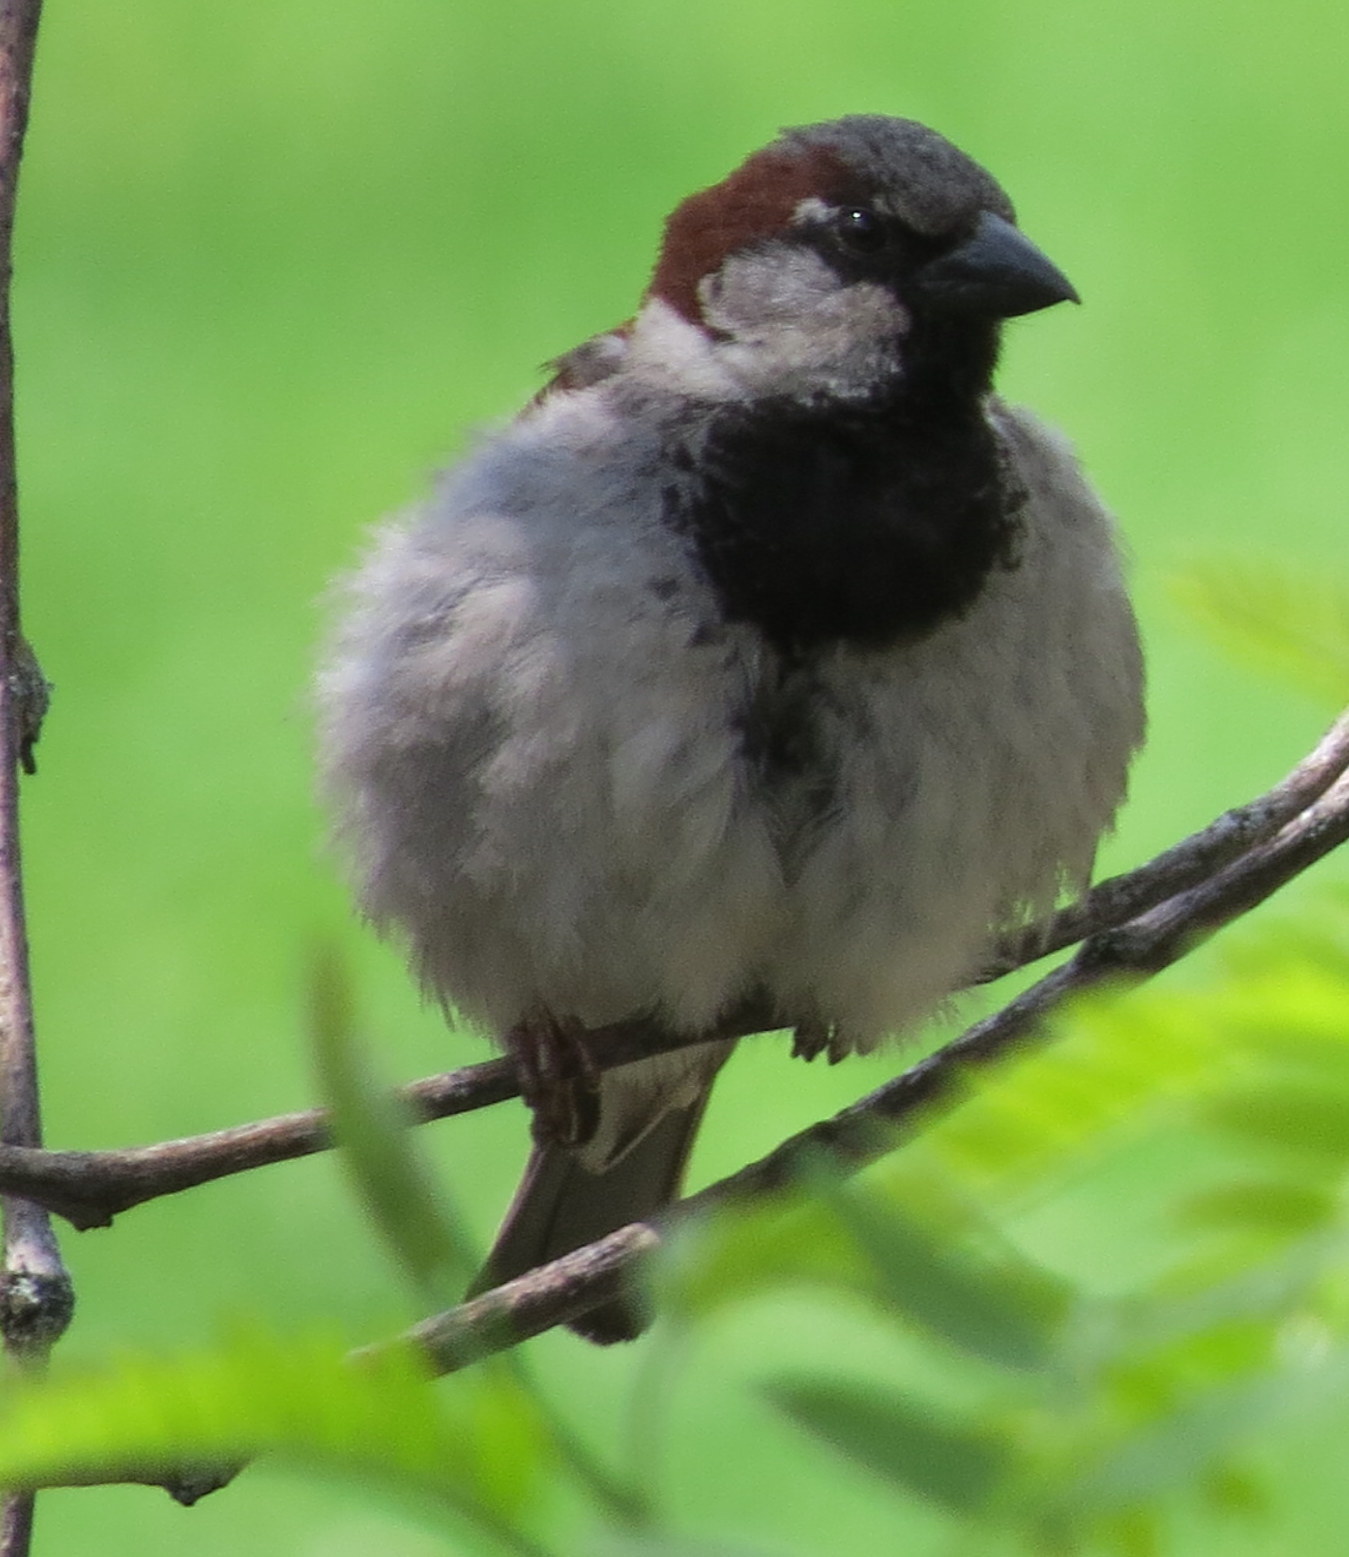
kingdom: Animalia
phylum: Chordata
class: Aves
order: Passeriformes
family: Passeridae
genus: Passer
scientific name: Passer domesticus
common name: House sparrow
